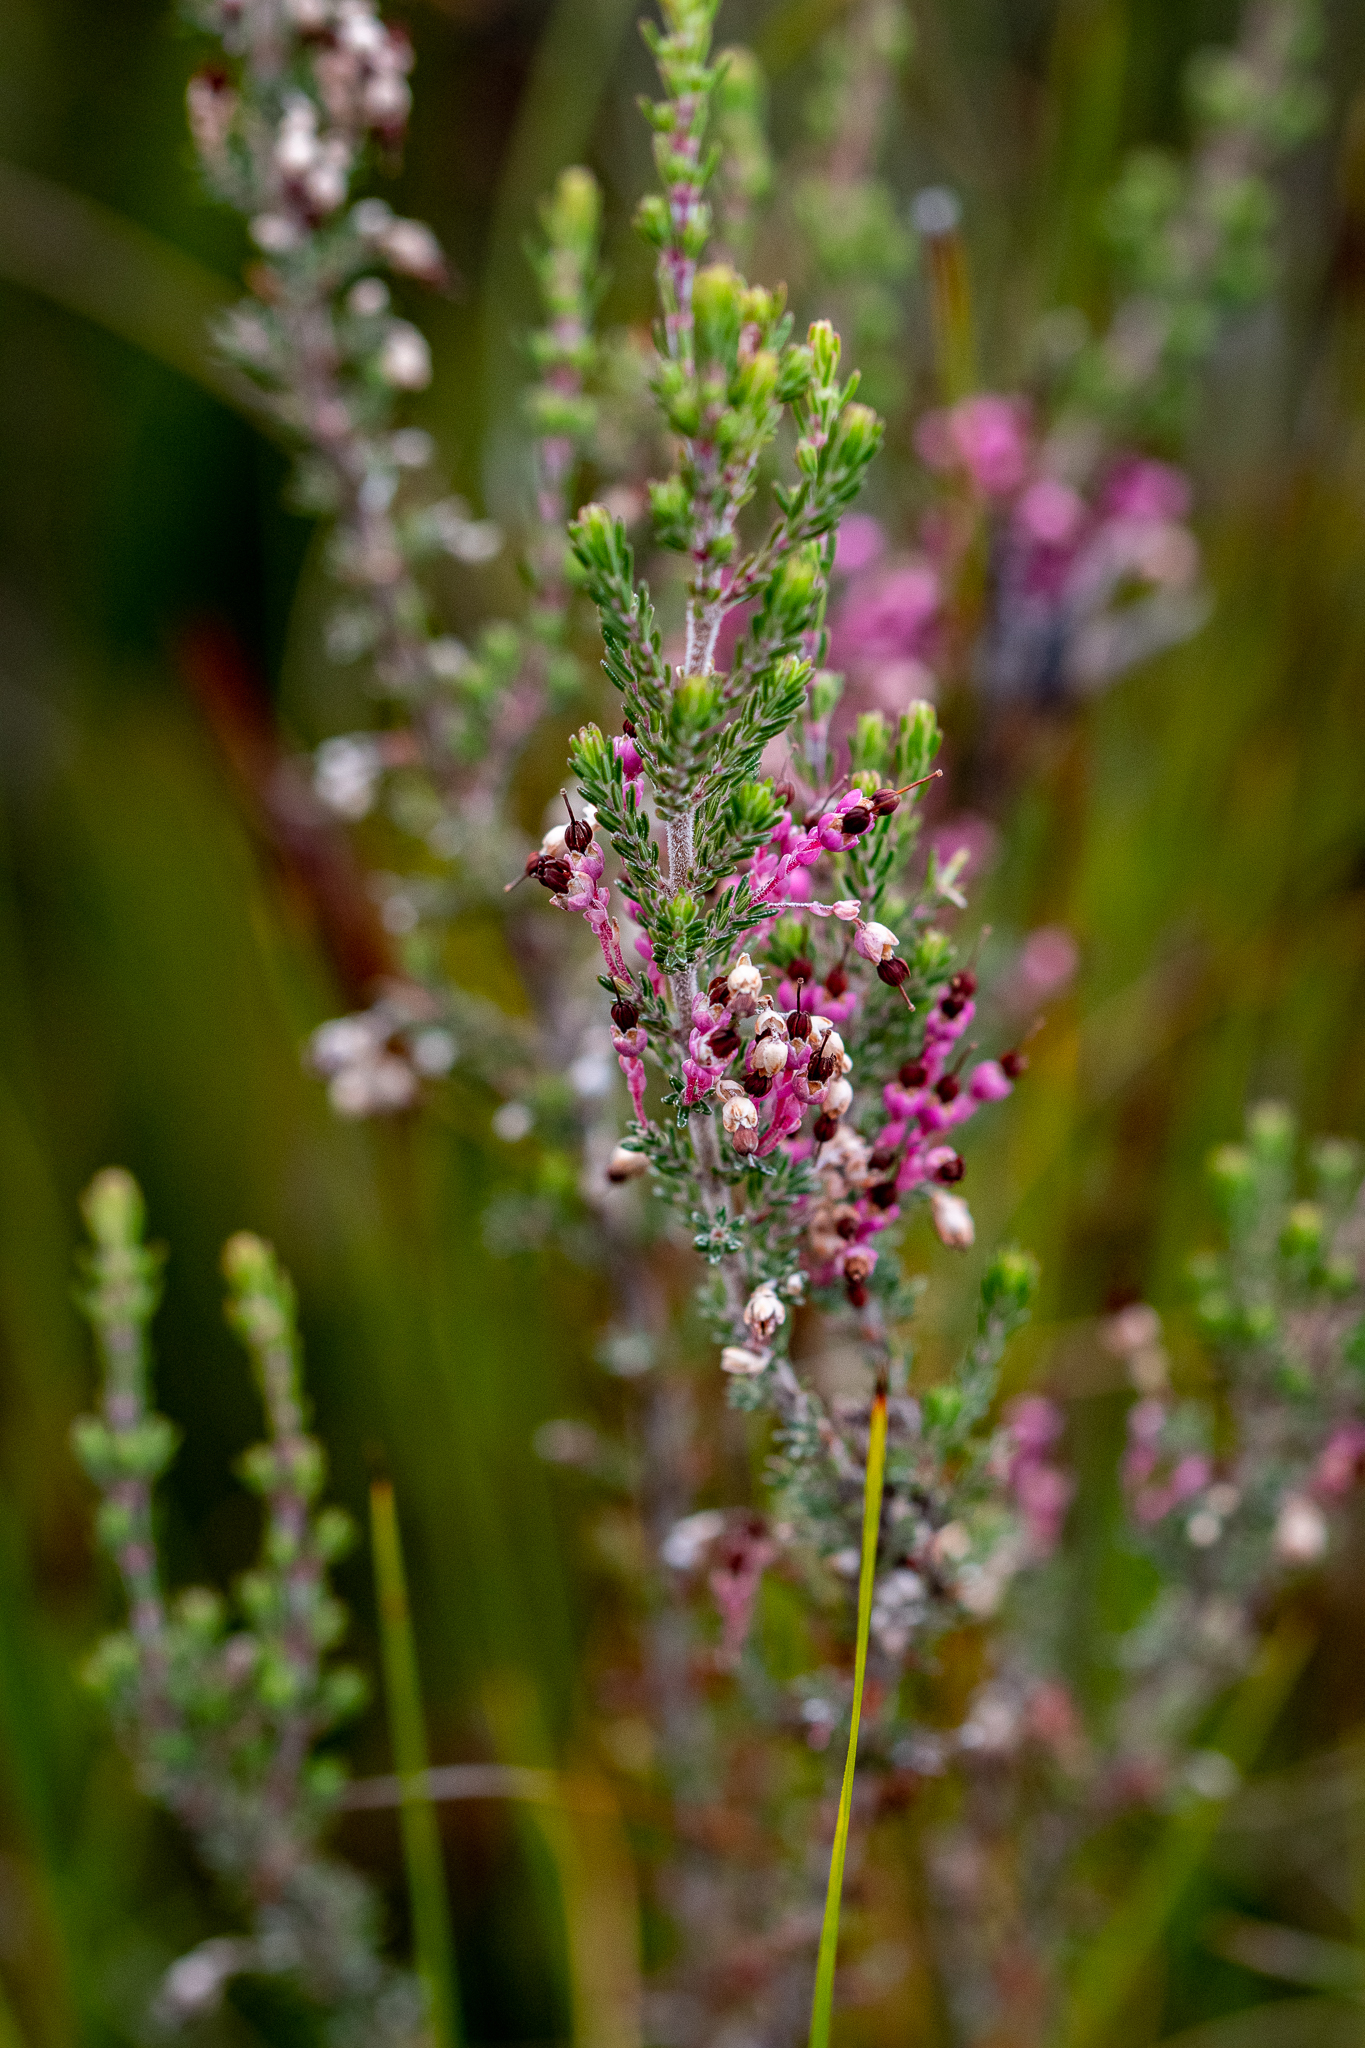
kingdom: Plantae
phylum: Tracheophyta
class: Magnoliopsida
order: Ericales
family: Ericaceae
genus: Erica
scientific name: Erica placentiflora
